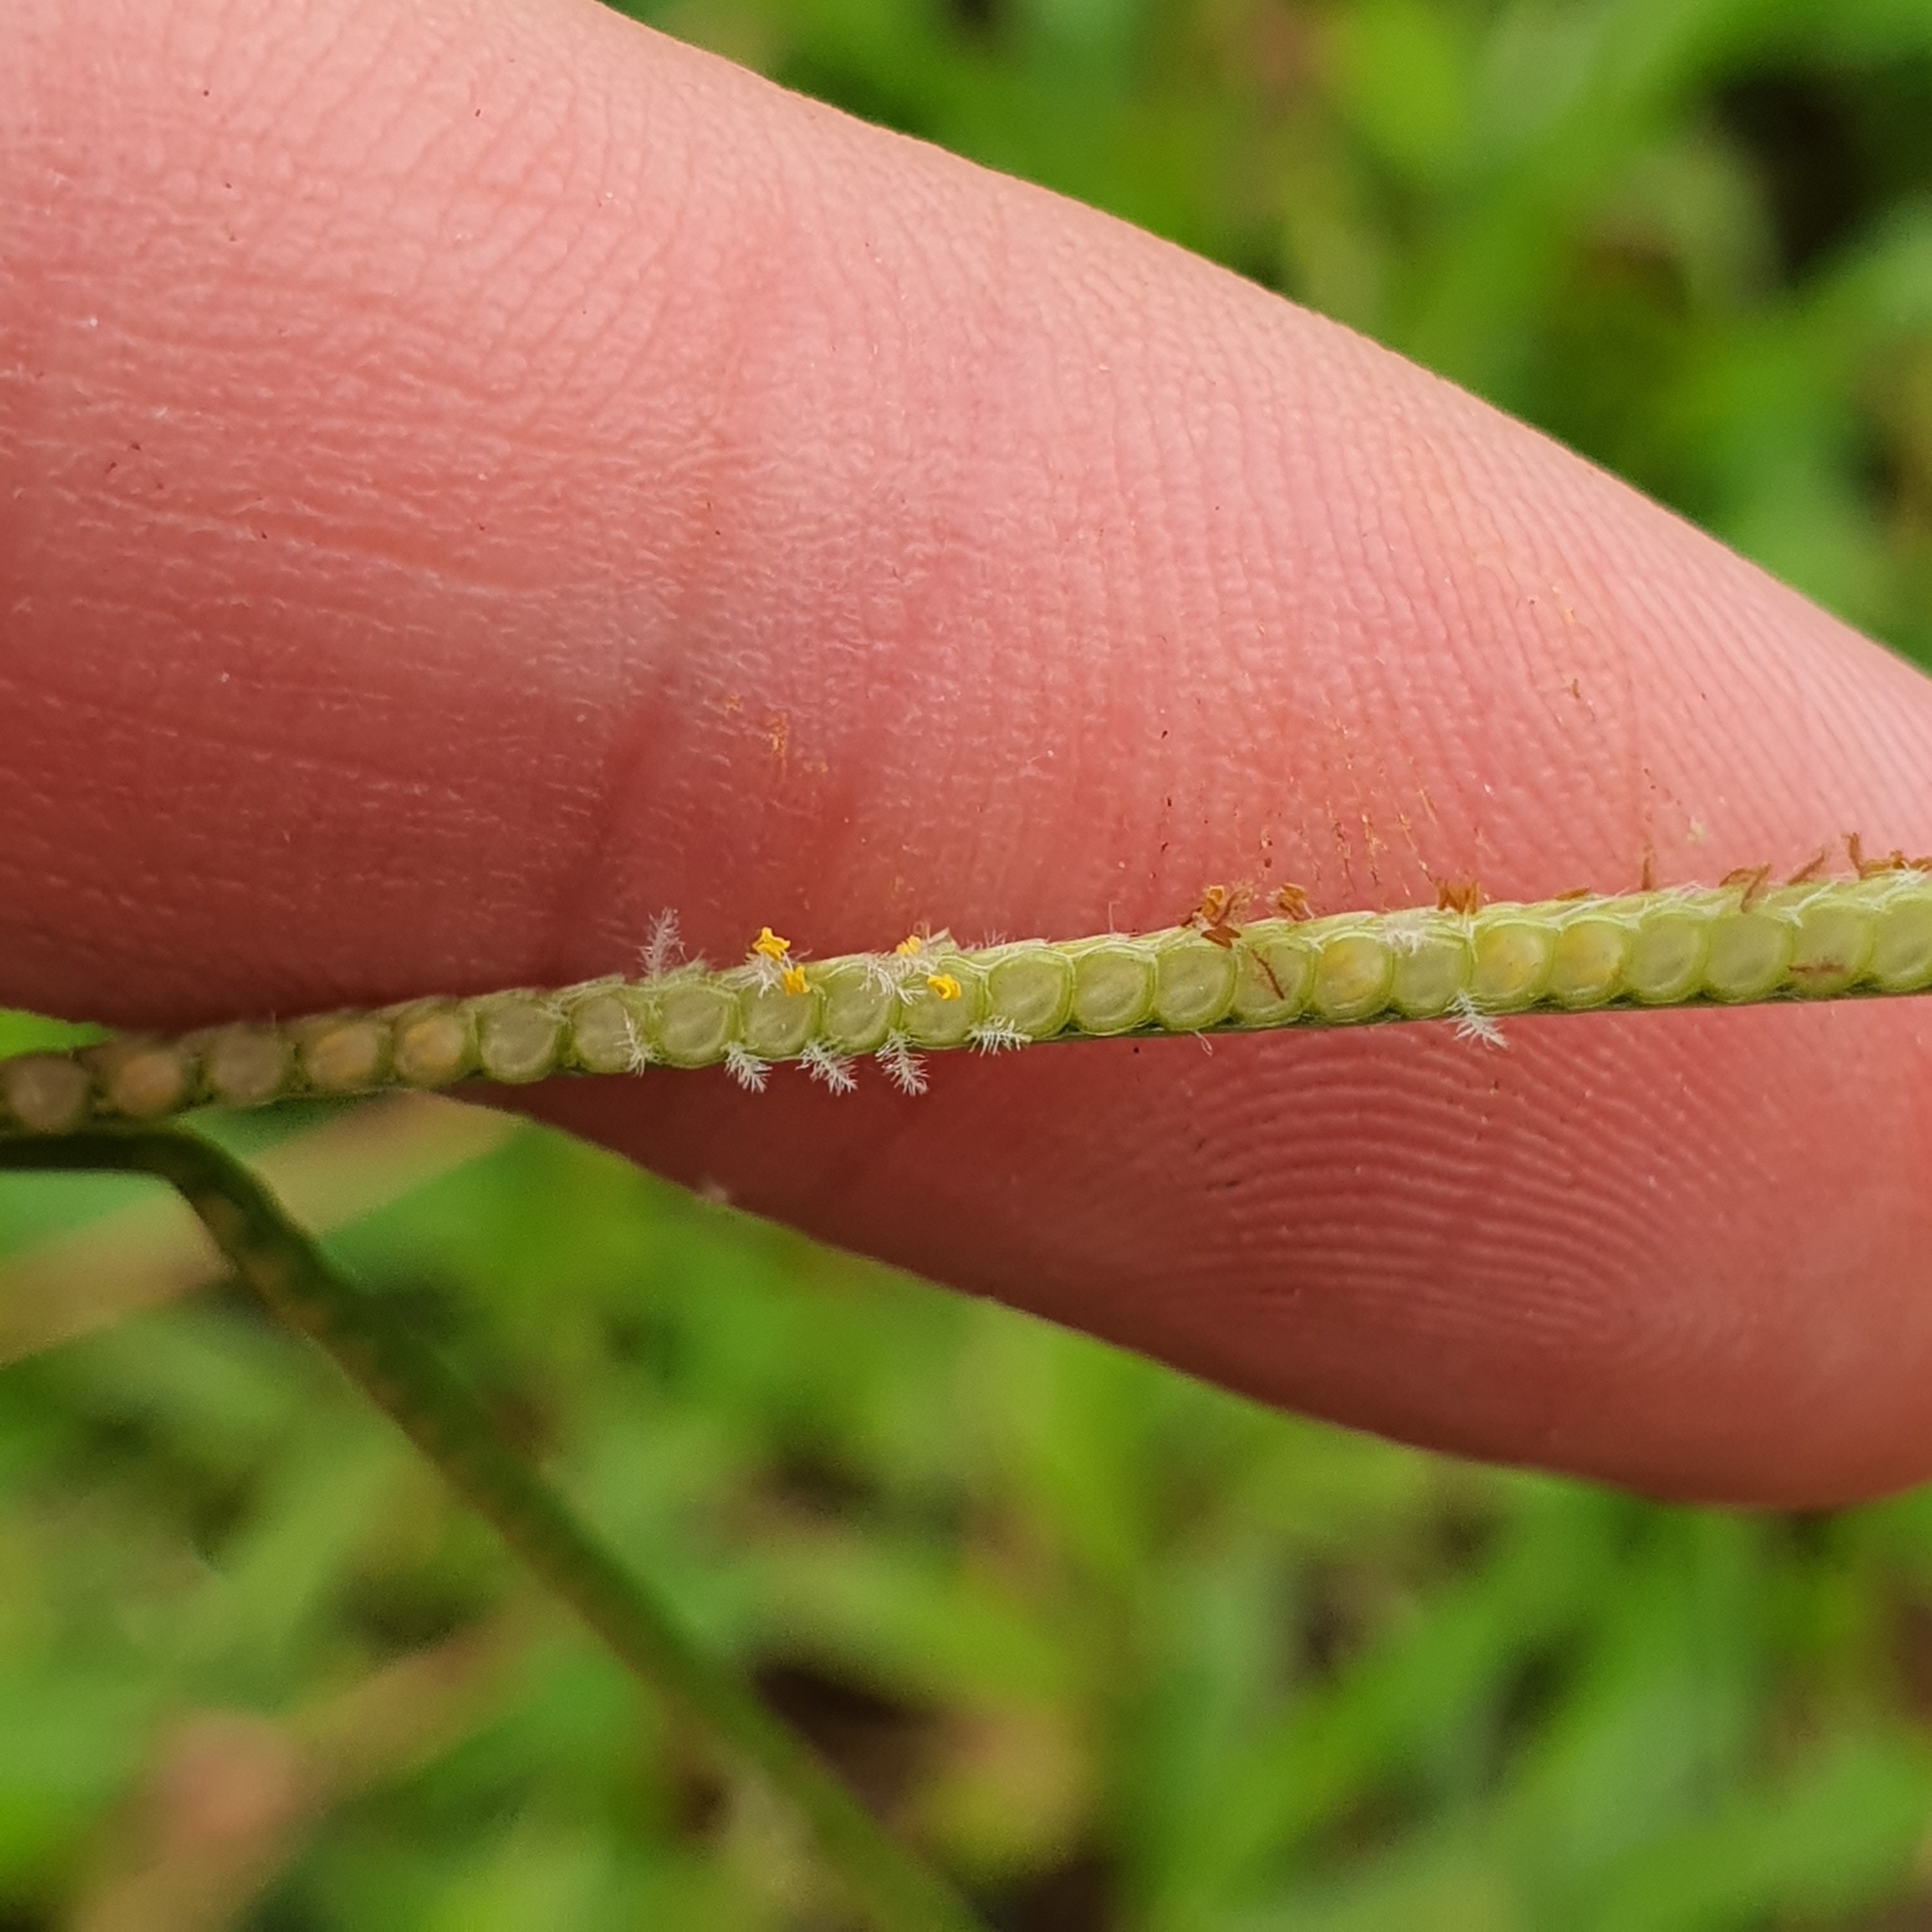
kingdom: Plantae
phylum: Tracheophyta
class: Liliopsida
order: Poales
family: Poaceae
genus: Paspalum
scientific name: Paspalum conjugatum
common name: Hilograss
